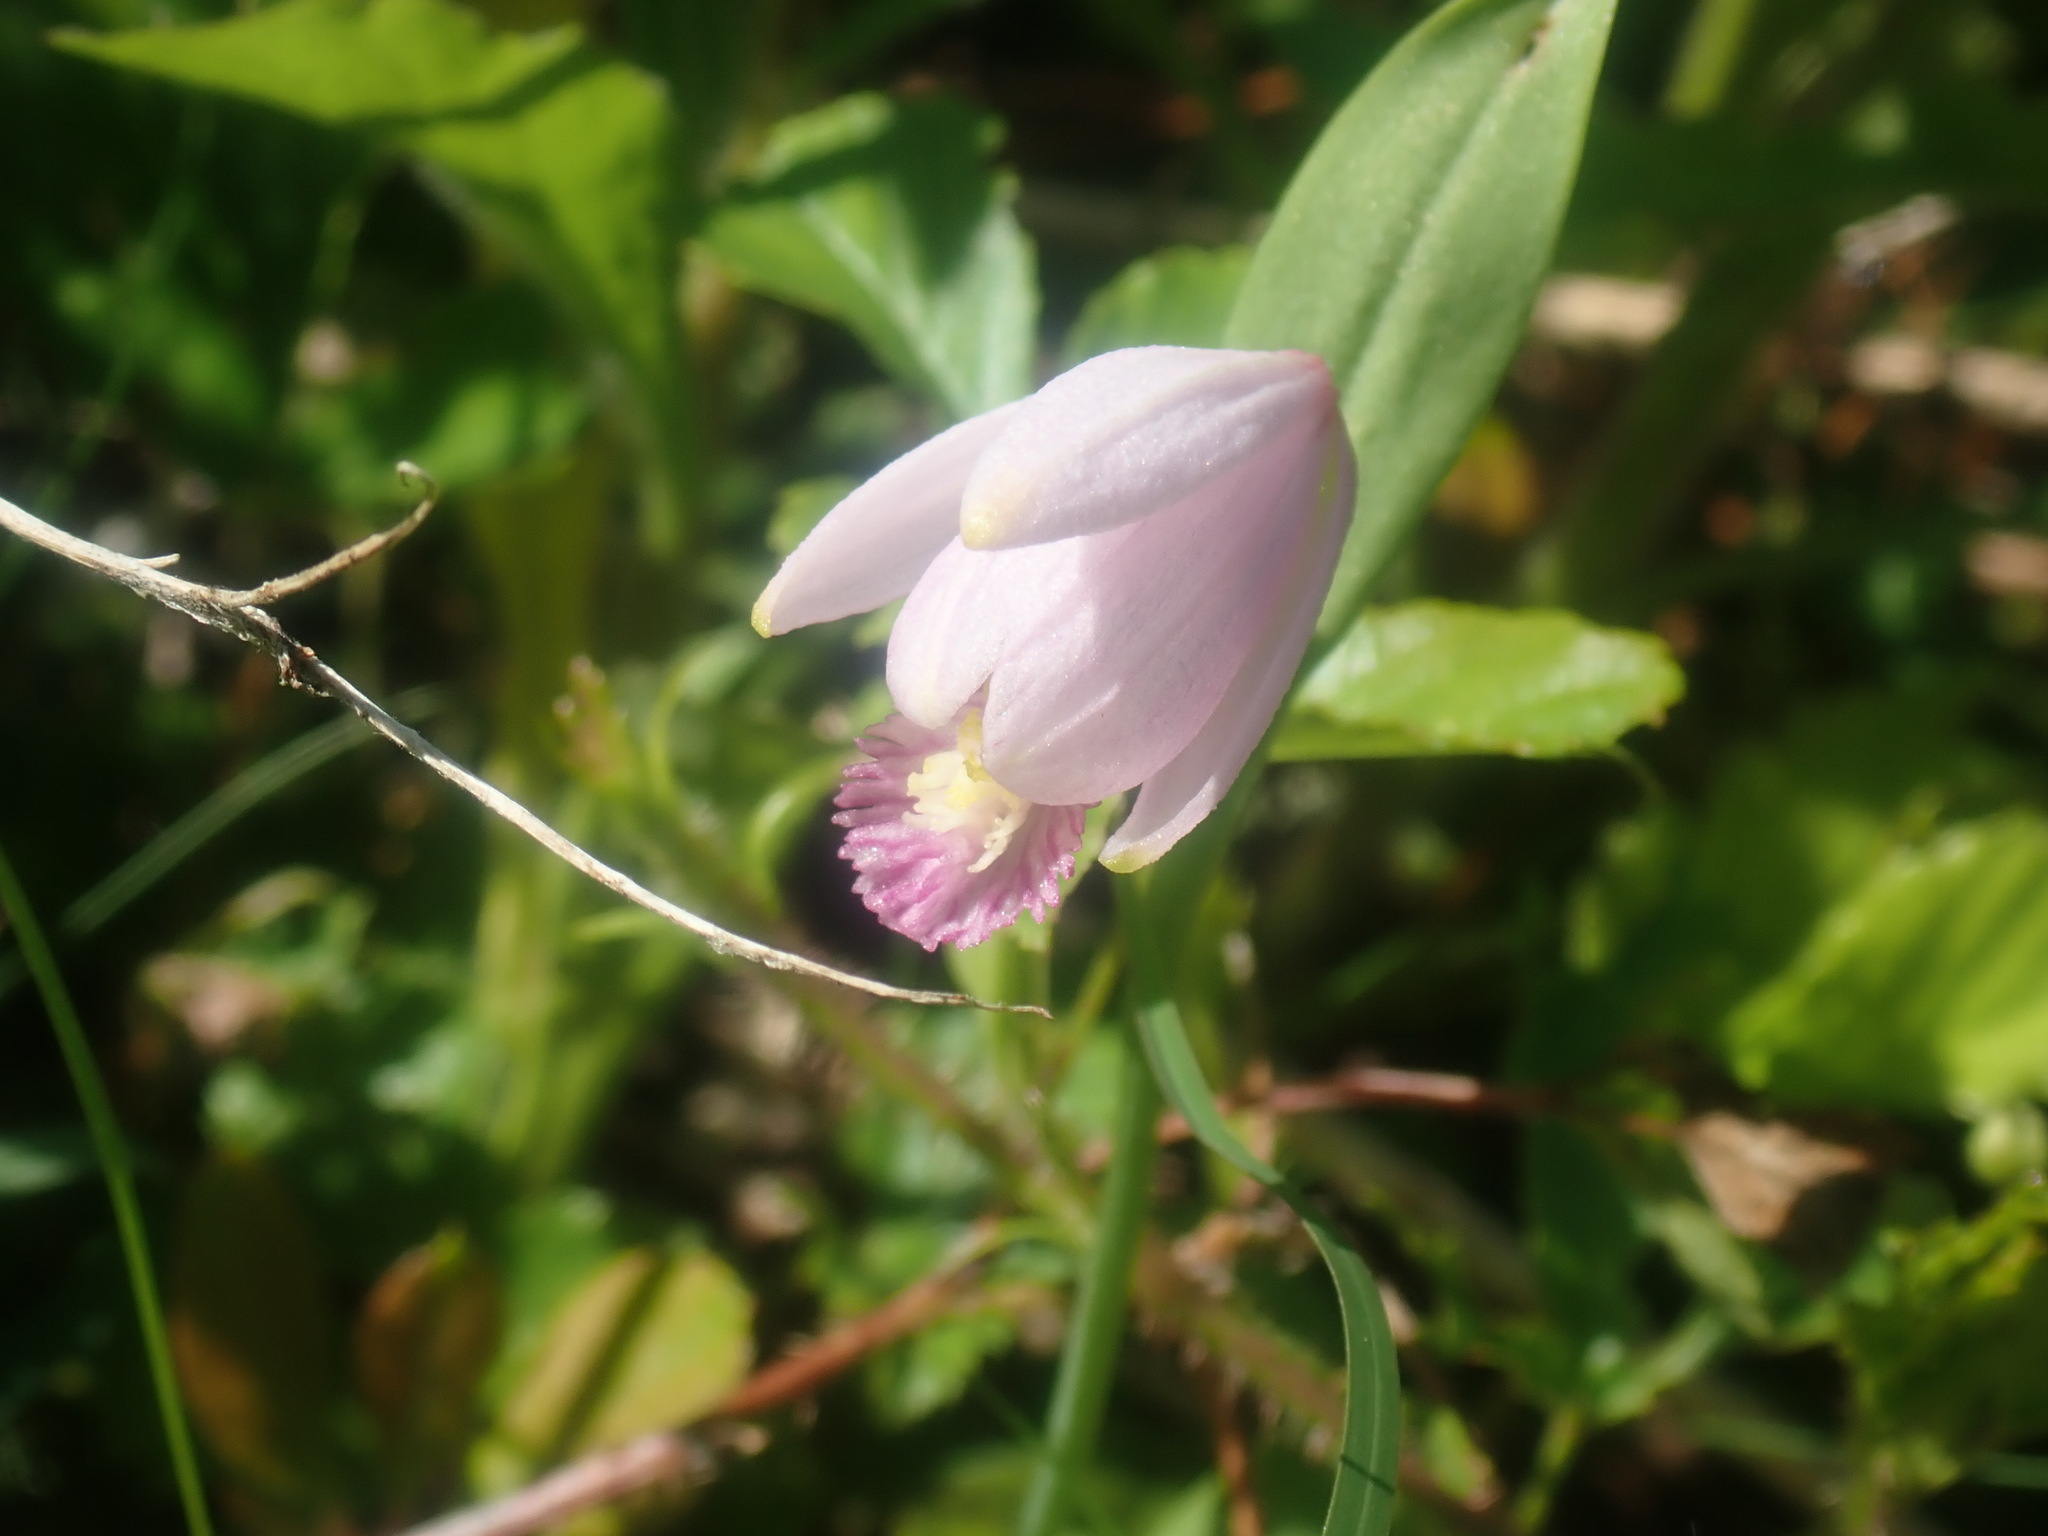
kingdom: Plantae
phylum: Tracheophyta
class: Liliopsida
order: Asparagales
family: Orchidaceae
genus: Pogonia
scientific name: Pogonia ophioglossoides
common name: Rose pogonia
